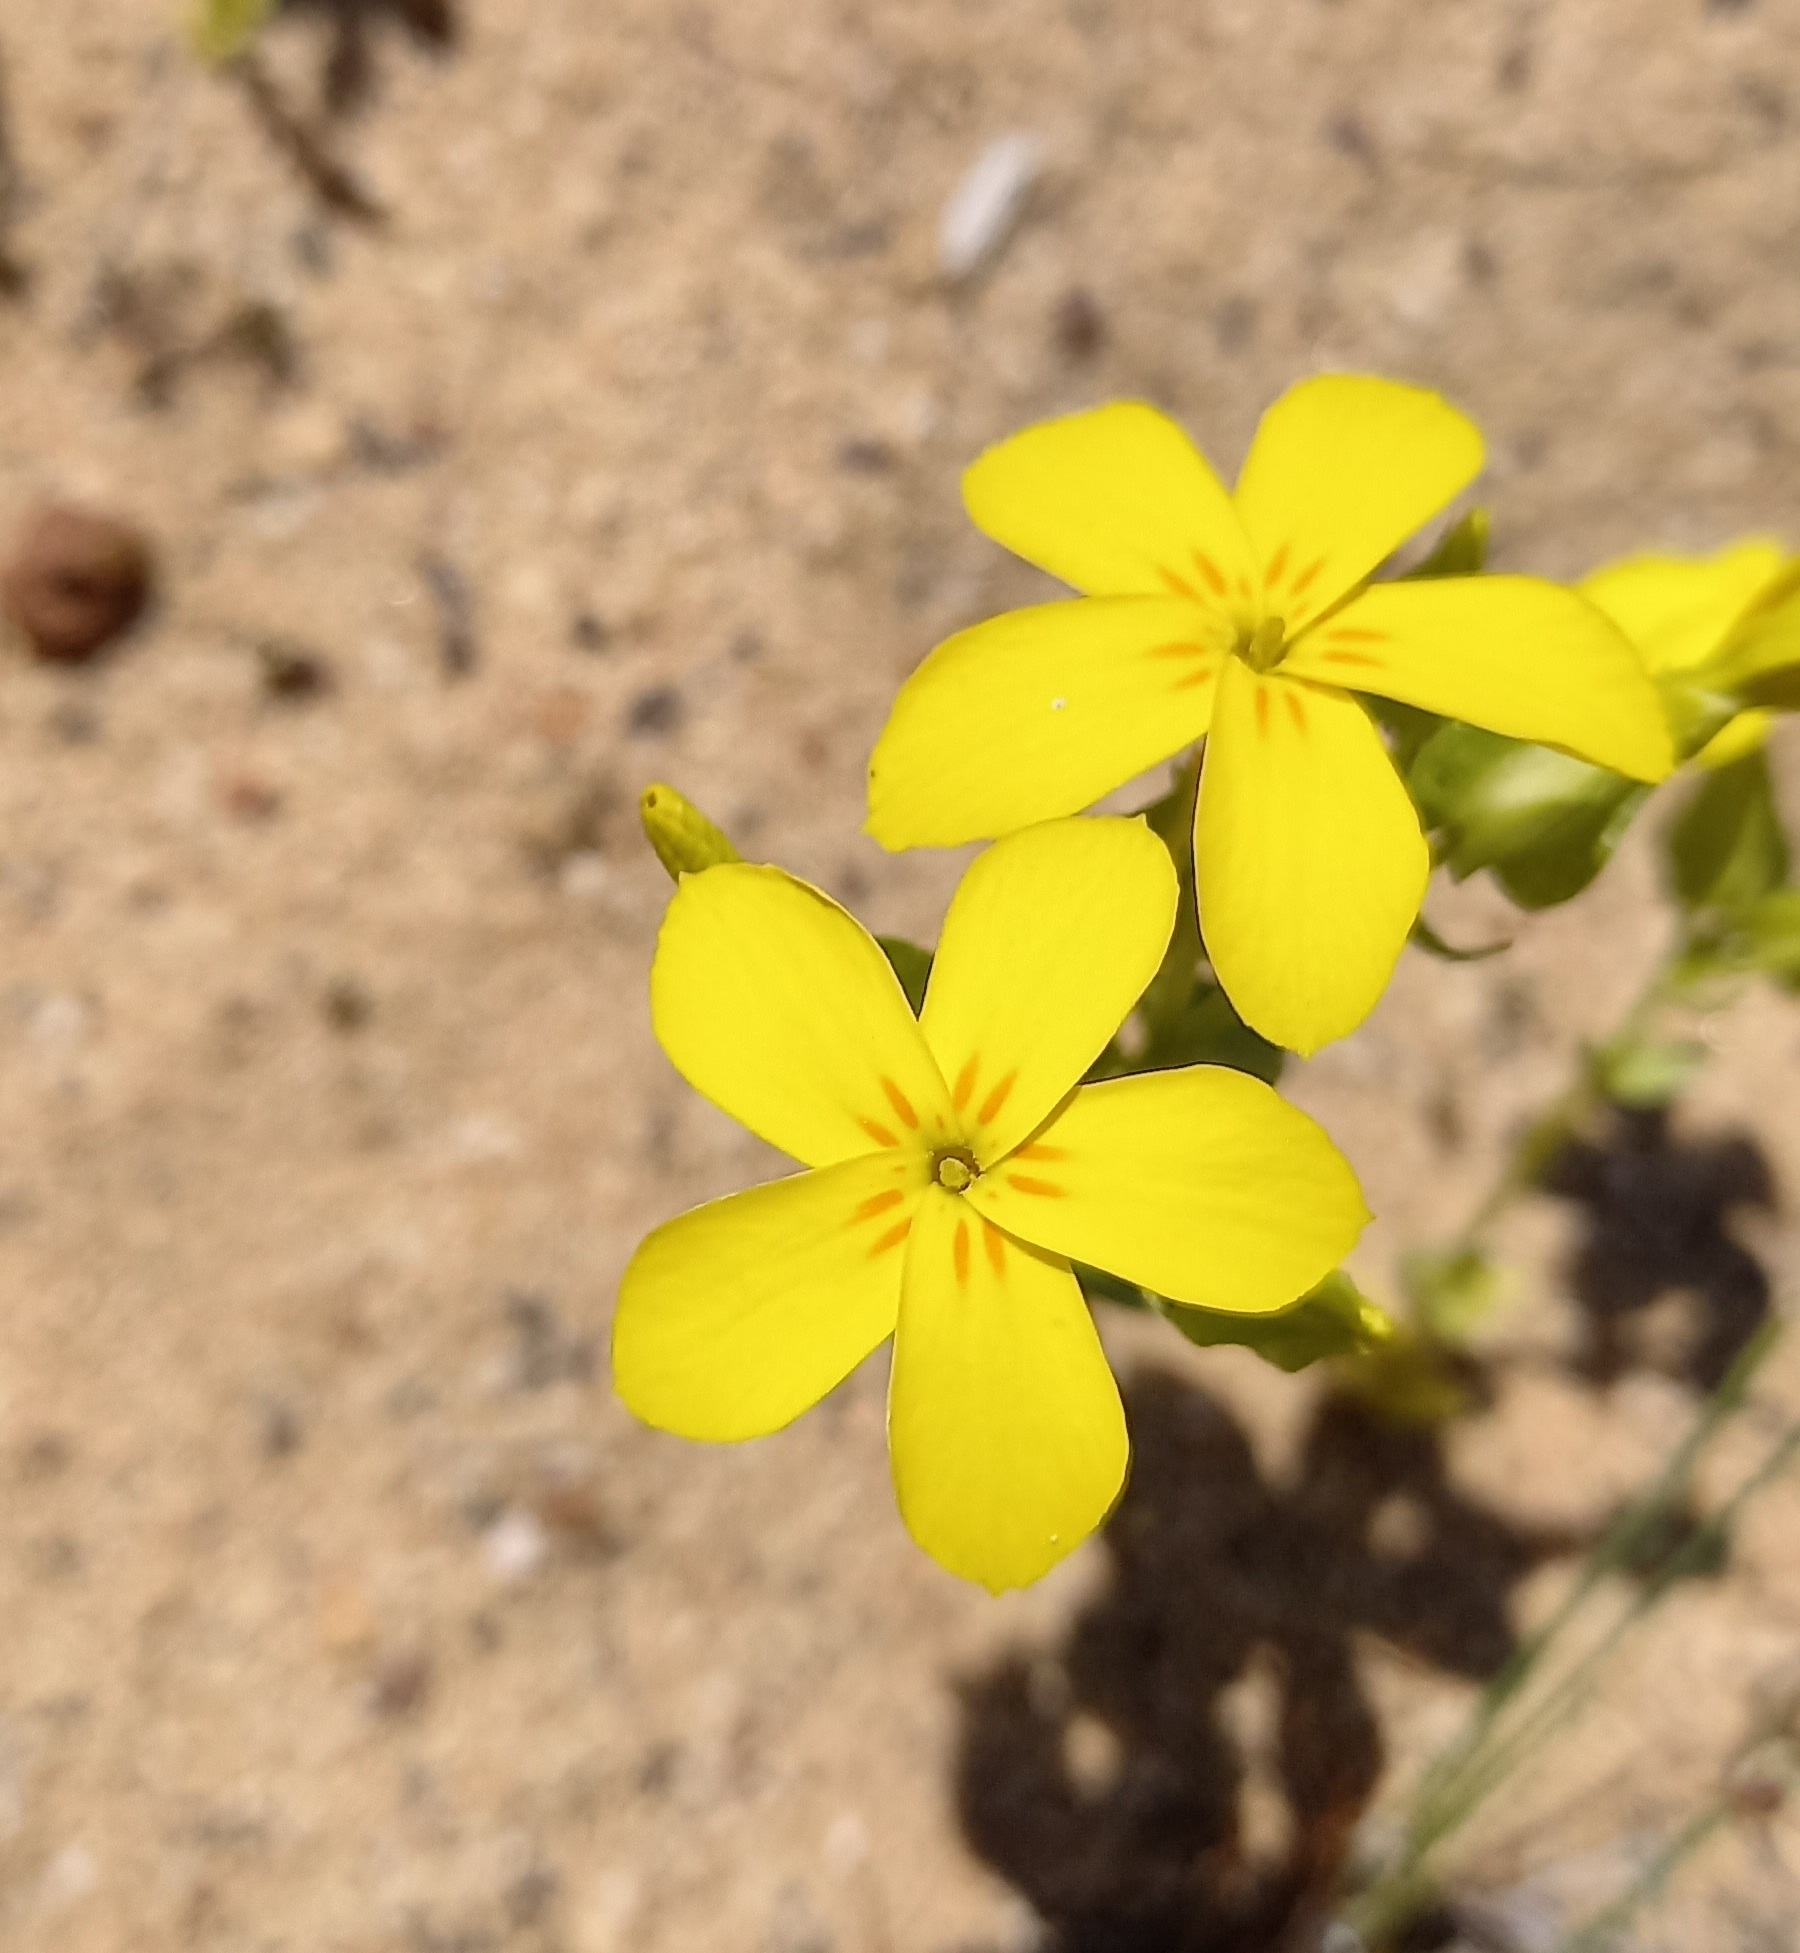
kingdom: Plantae
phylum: Tracheophyta
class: Magnoliopsida
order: Gentianales
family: Gentianaceae
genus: Sebaea
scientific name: Sebaea exacoides
